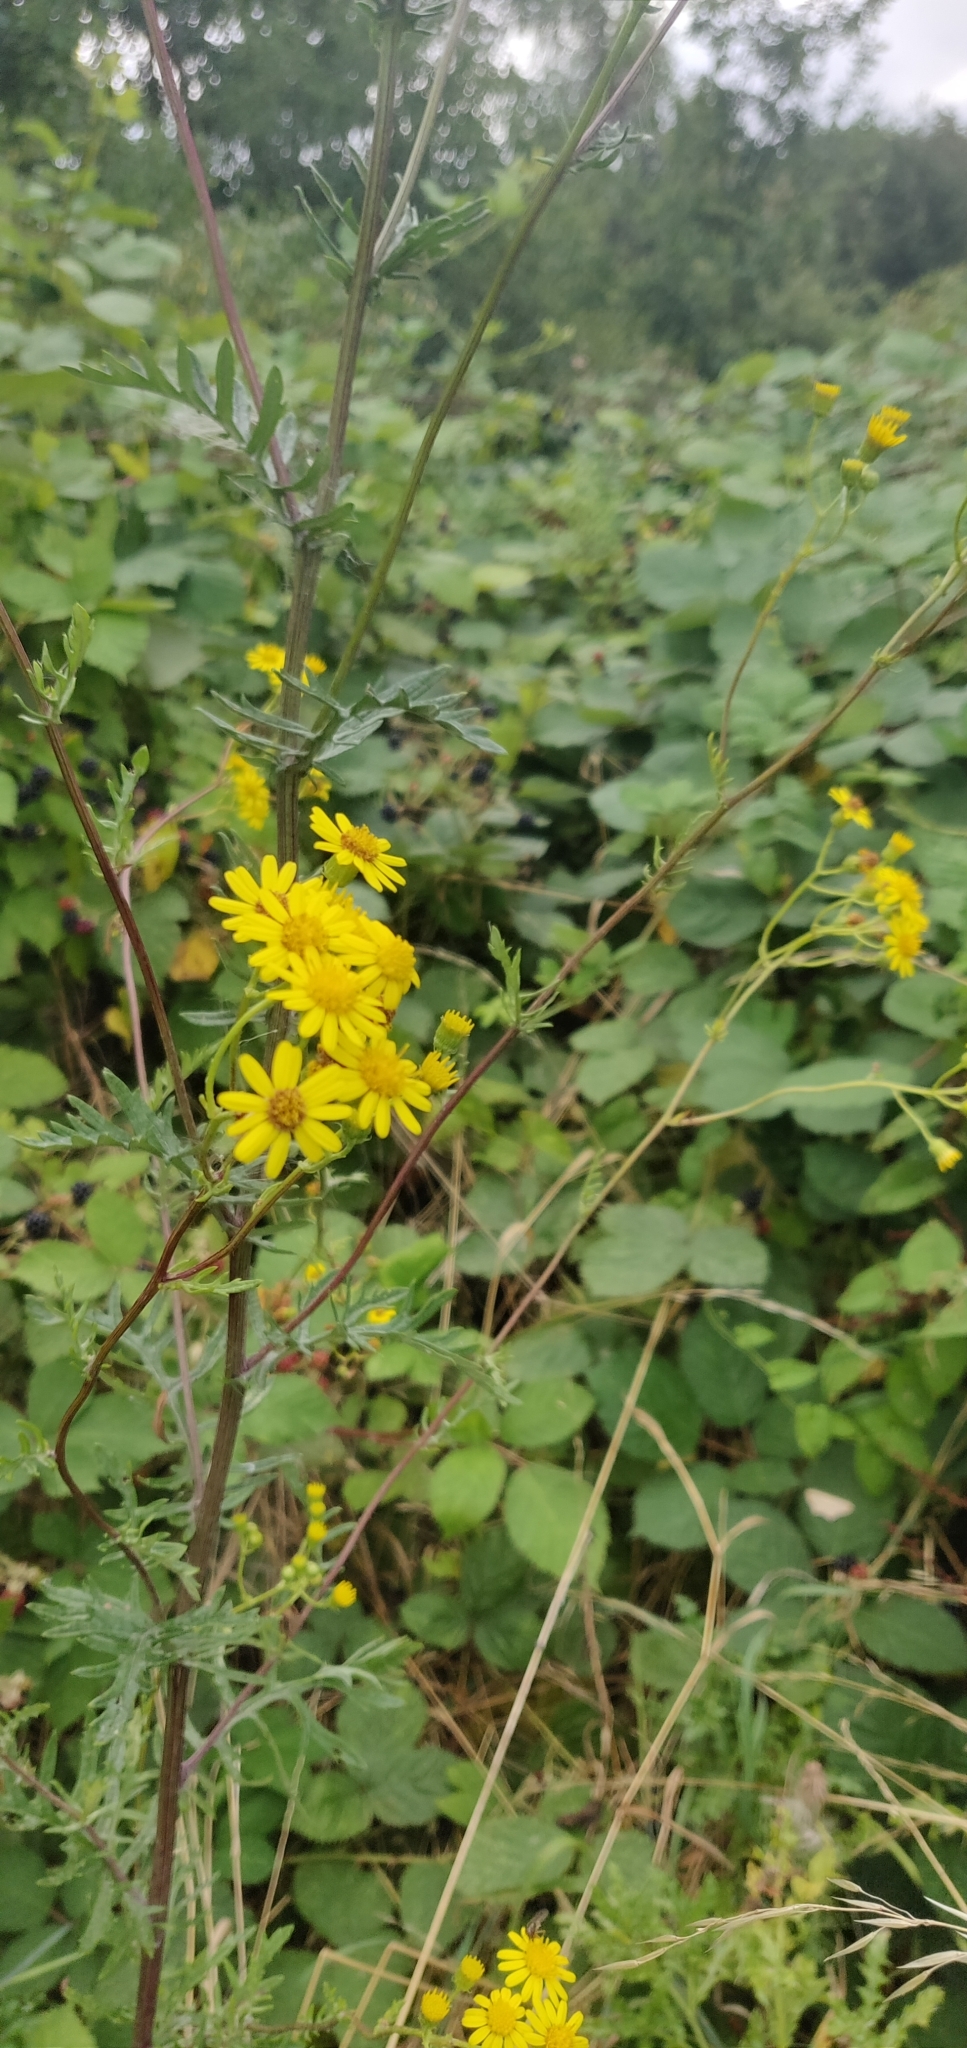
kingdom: Plantae
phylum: Tracheophyta
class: Magnoliopsida
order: Asterales
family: Asteraceae
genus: Jacobaea
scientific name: Jacobaea erucifolia
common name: Hoary ragwort
